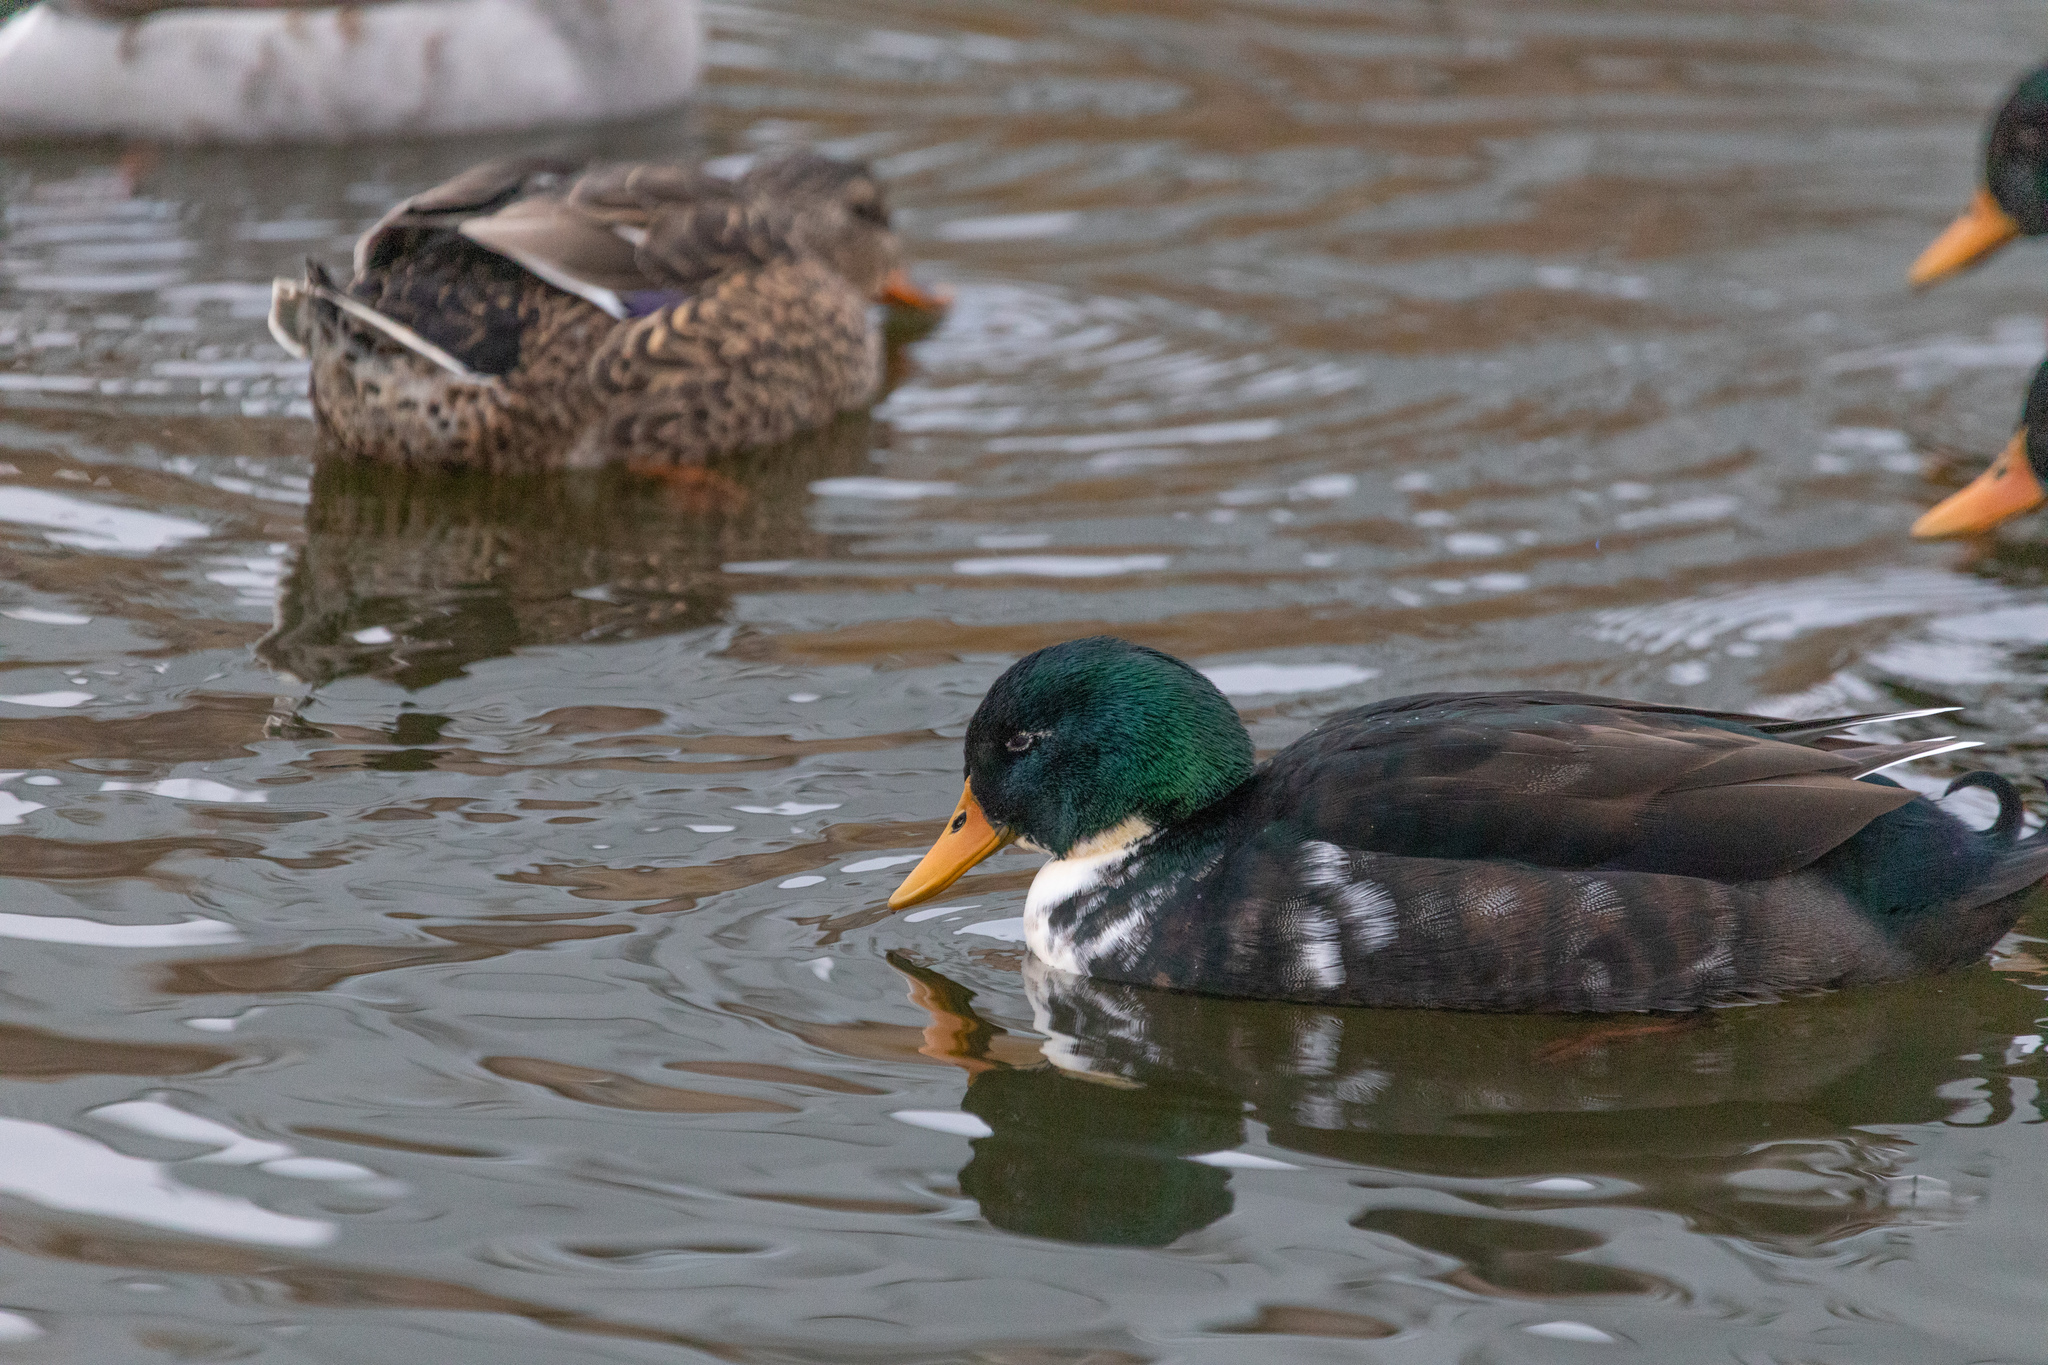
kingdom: Animalia
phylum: Chordata
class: Aves
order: Anseriformes
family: Anatidae
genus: Anas
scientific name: Anas platyrhynchos
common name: Mallard
